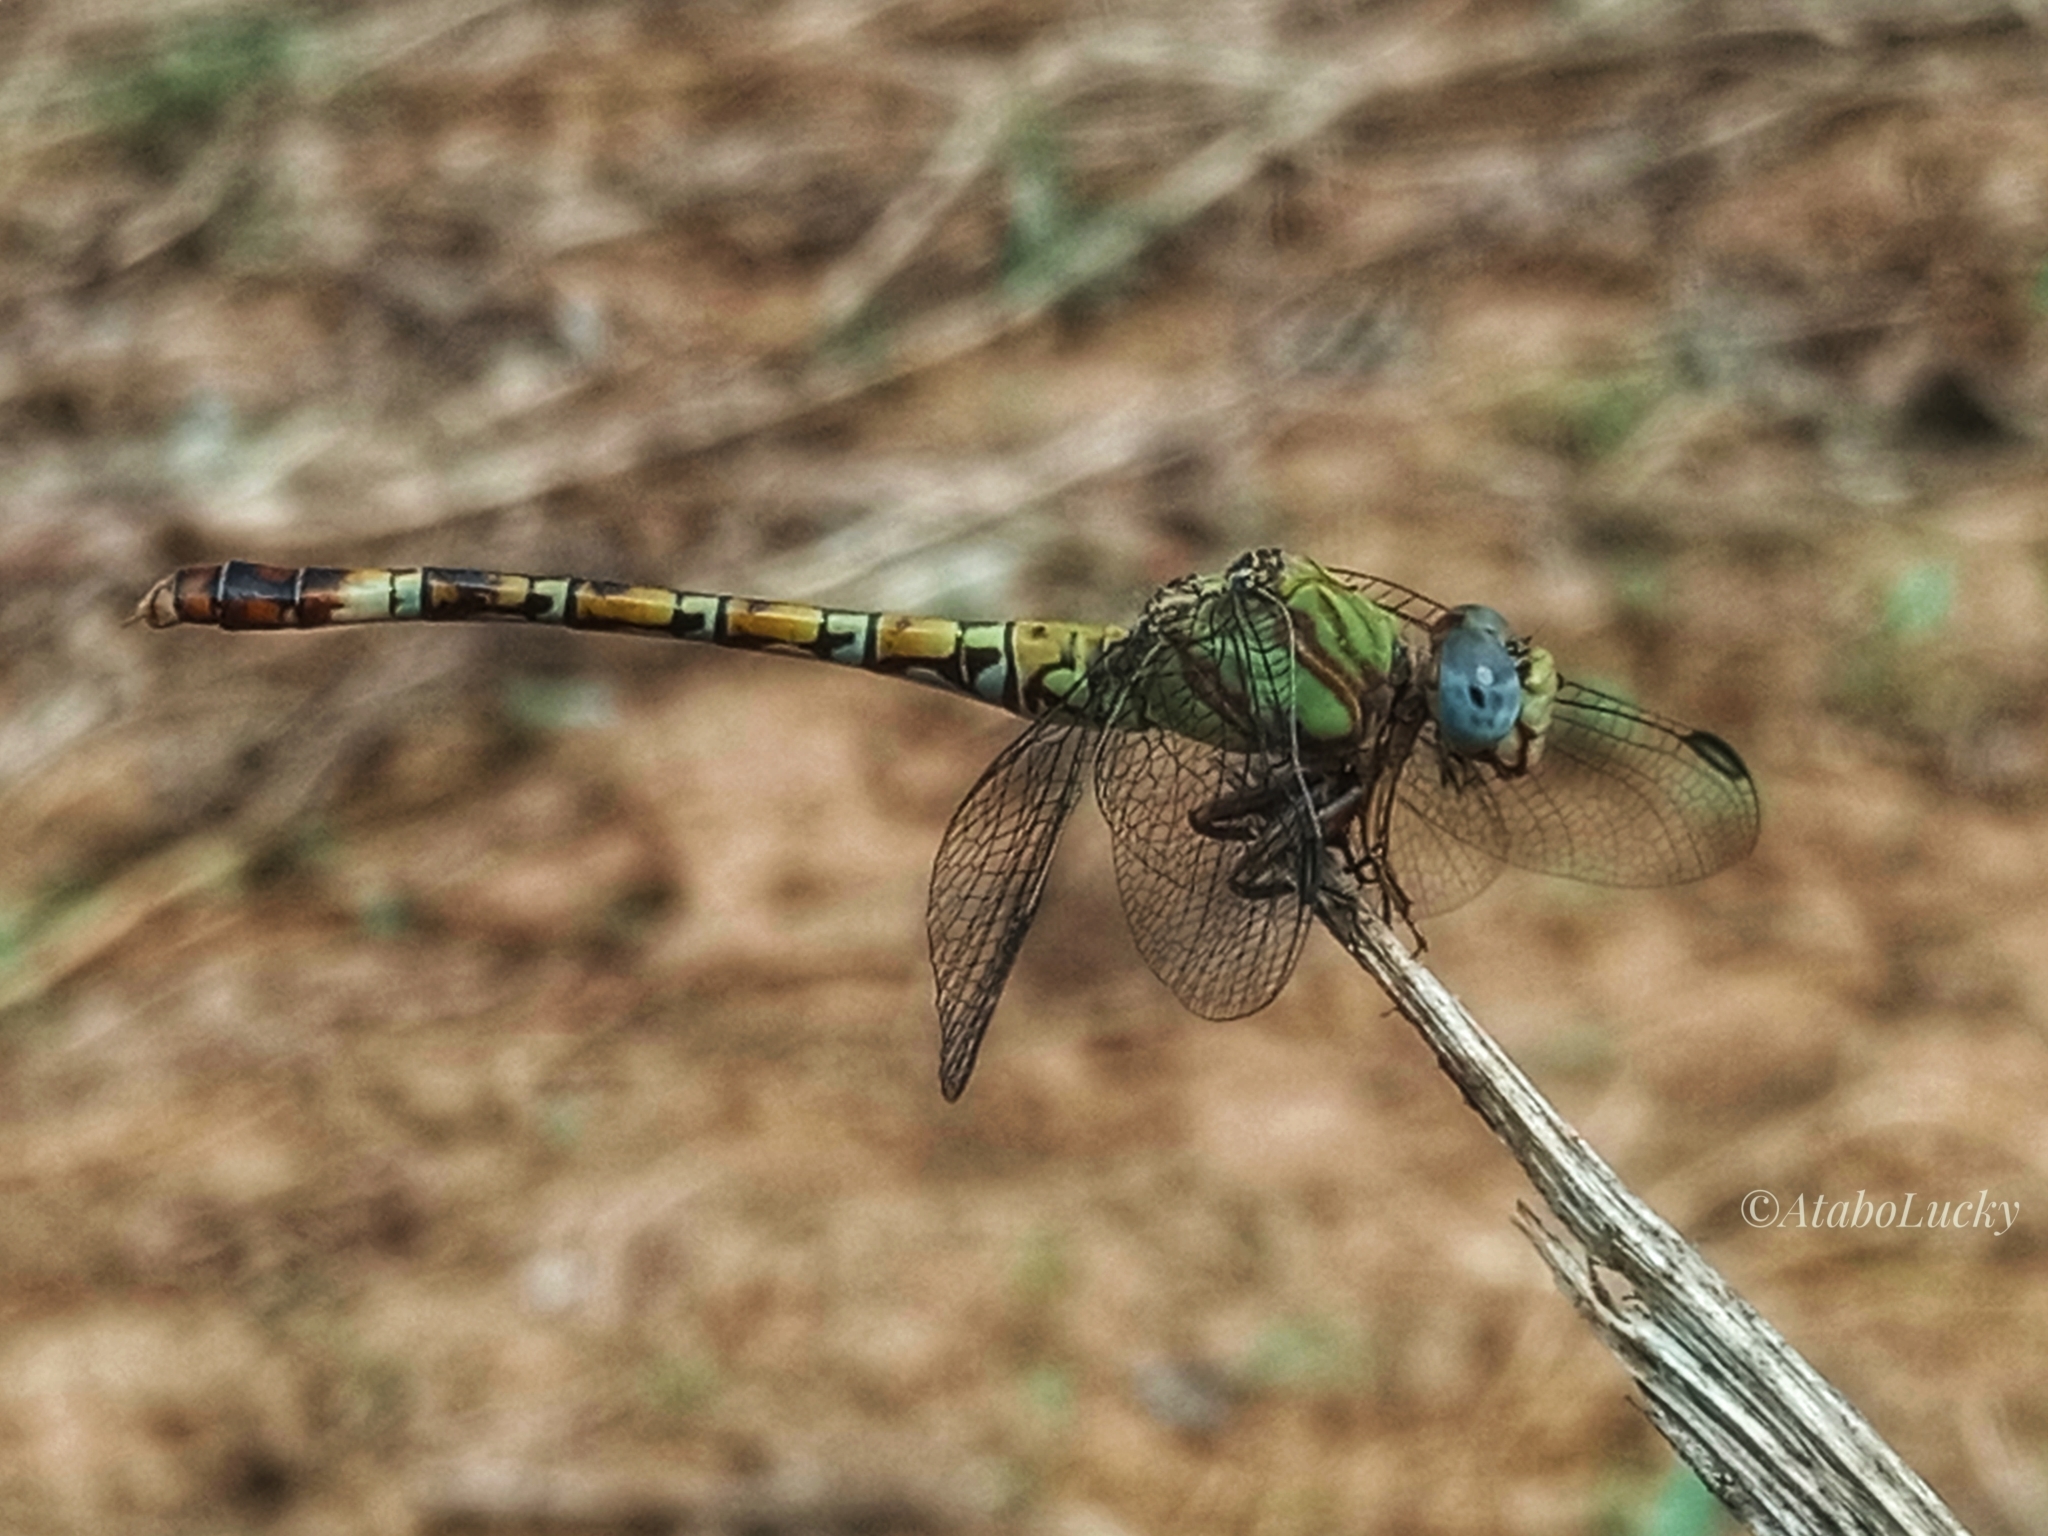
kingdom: Animalia
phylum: Arthropoda
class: Insecta
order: Odonata
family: Gomphidae
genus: Paragomphus
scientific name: Paragomphus genei
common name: Common hooktail
